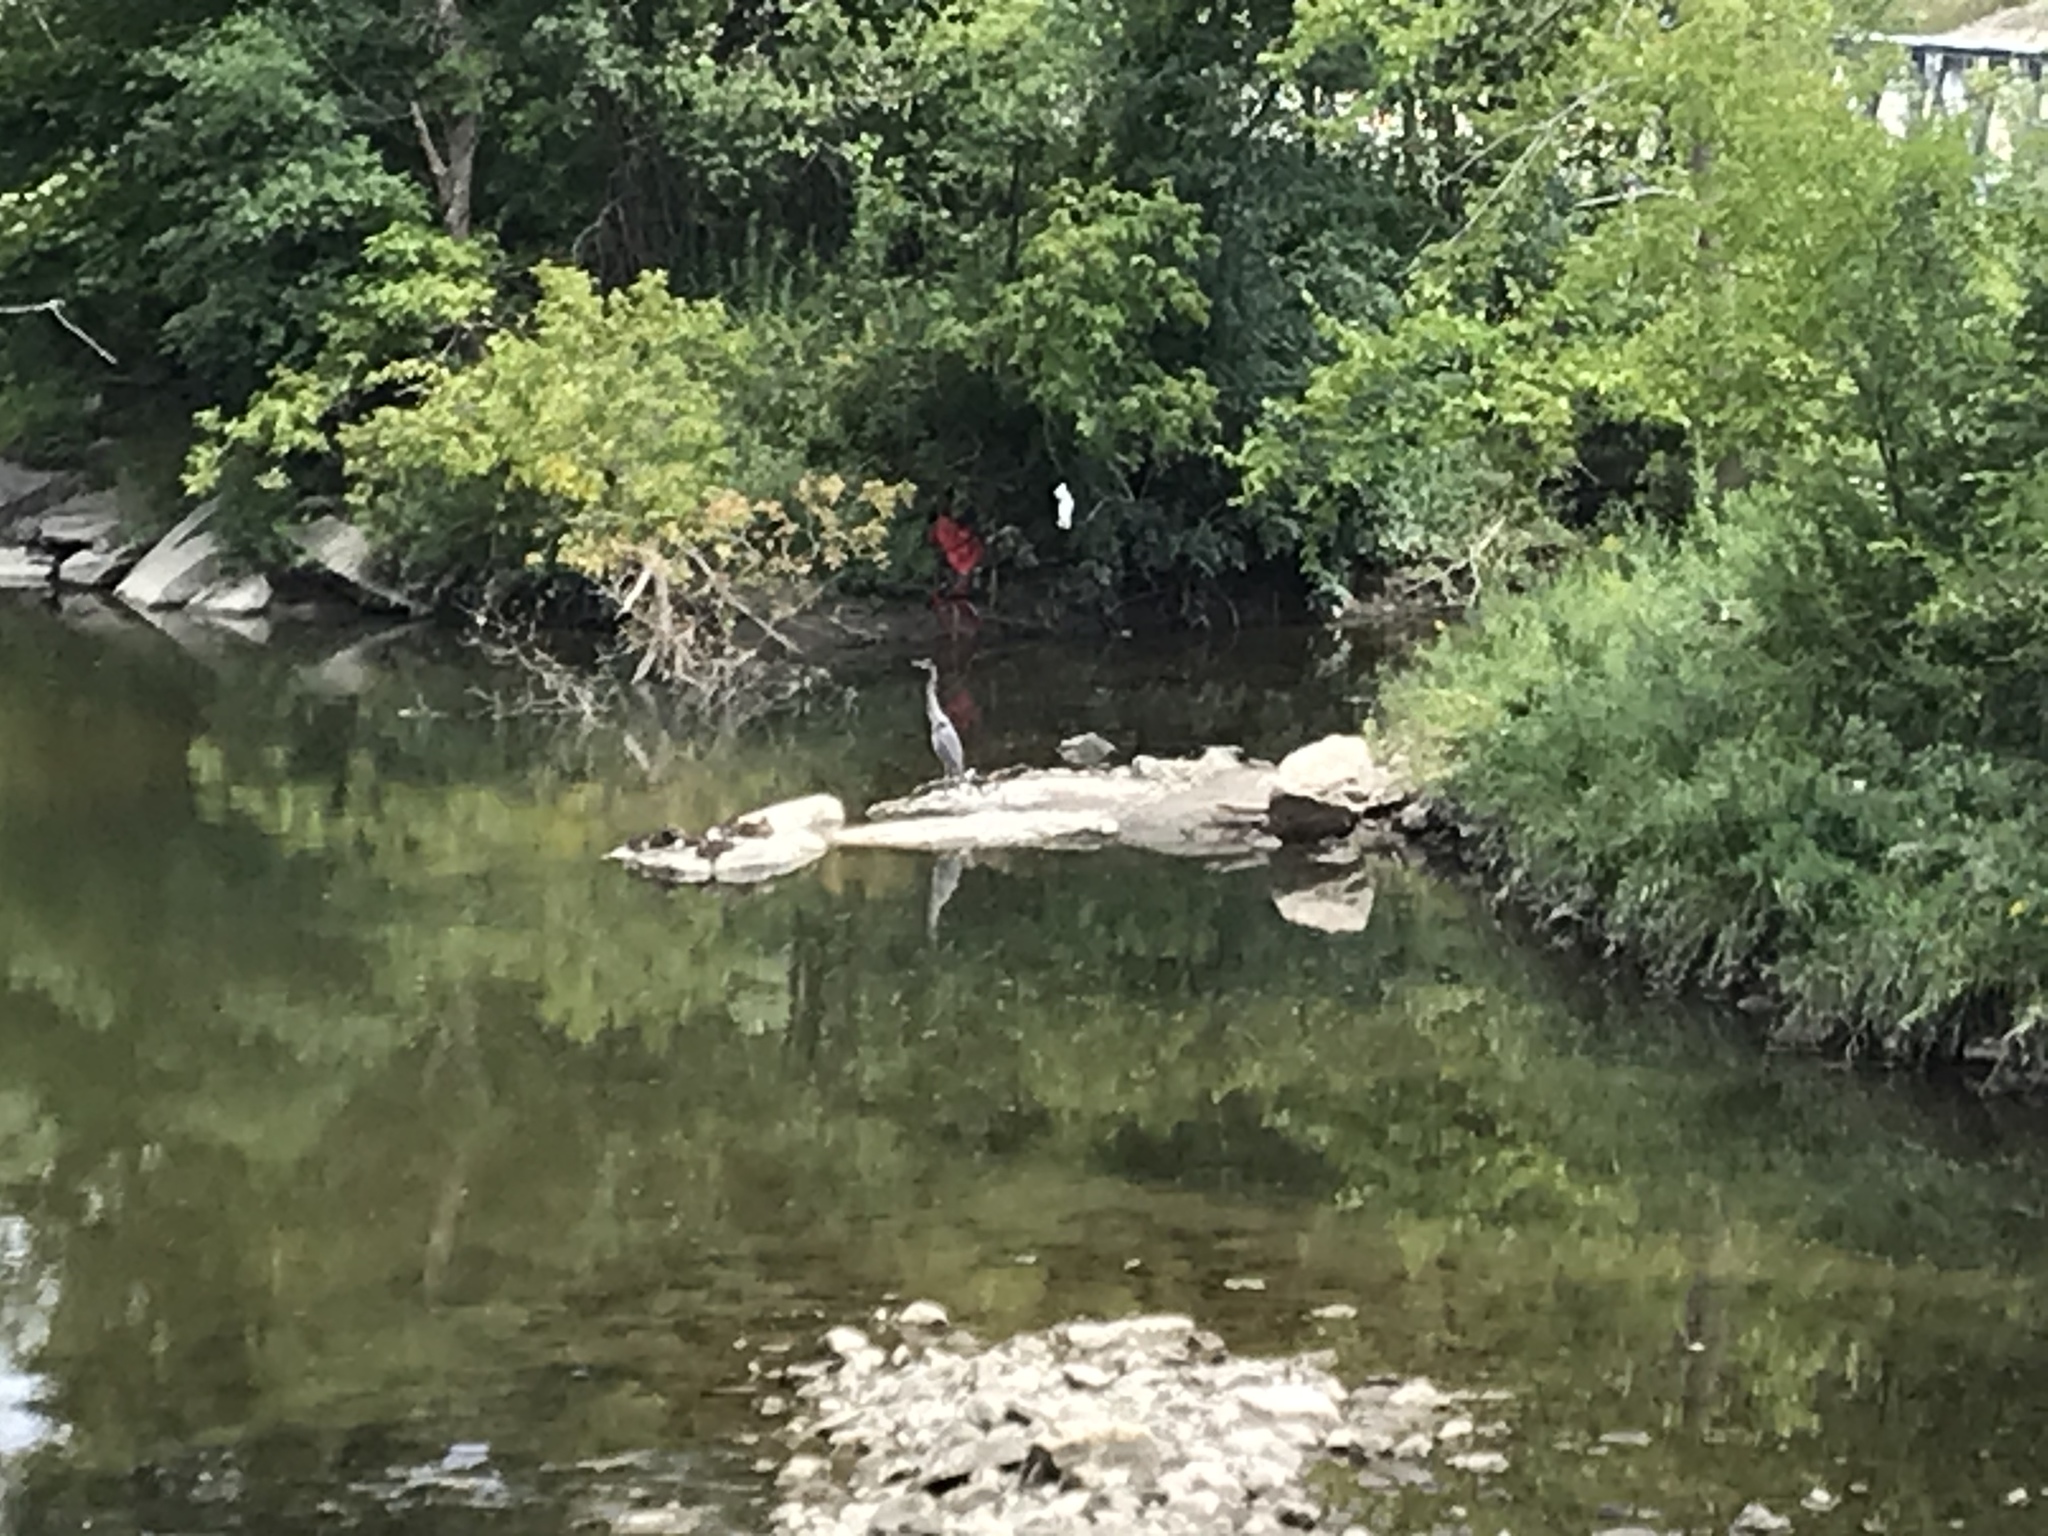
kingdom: Animalia
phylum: Chordata
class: Aves
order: Pelecaniformes
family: Ardeidae
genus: Ardea
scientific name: Ardea herodias
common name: Great blue heron
